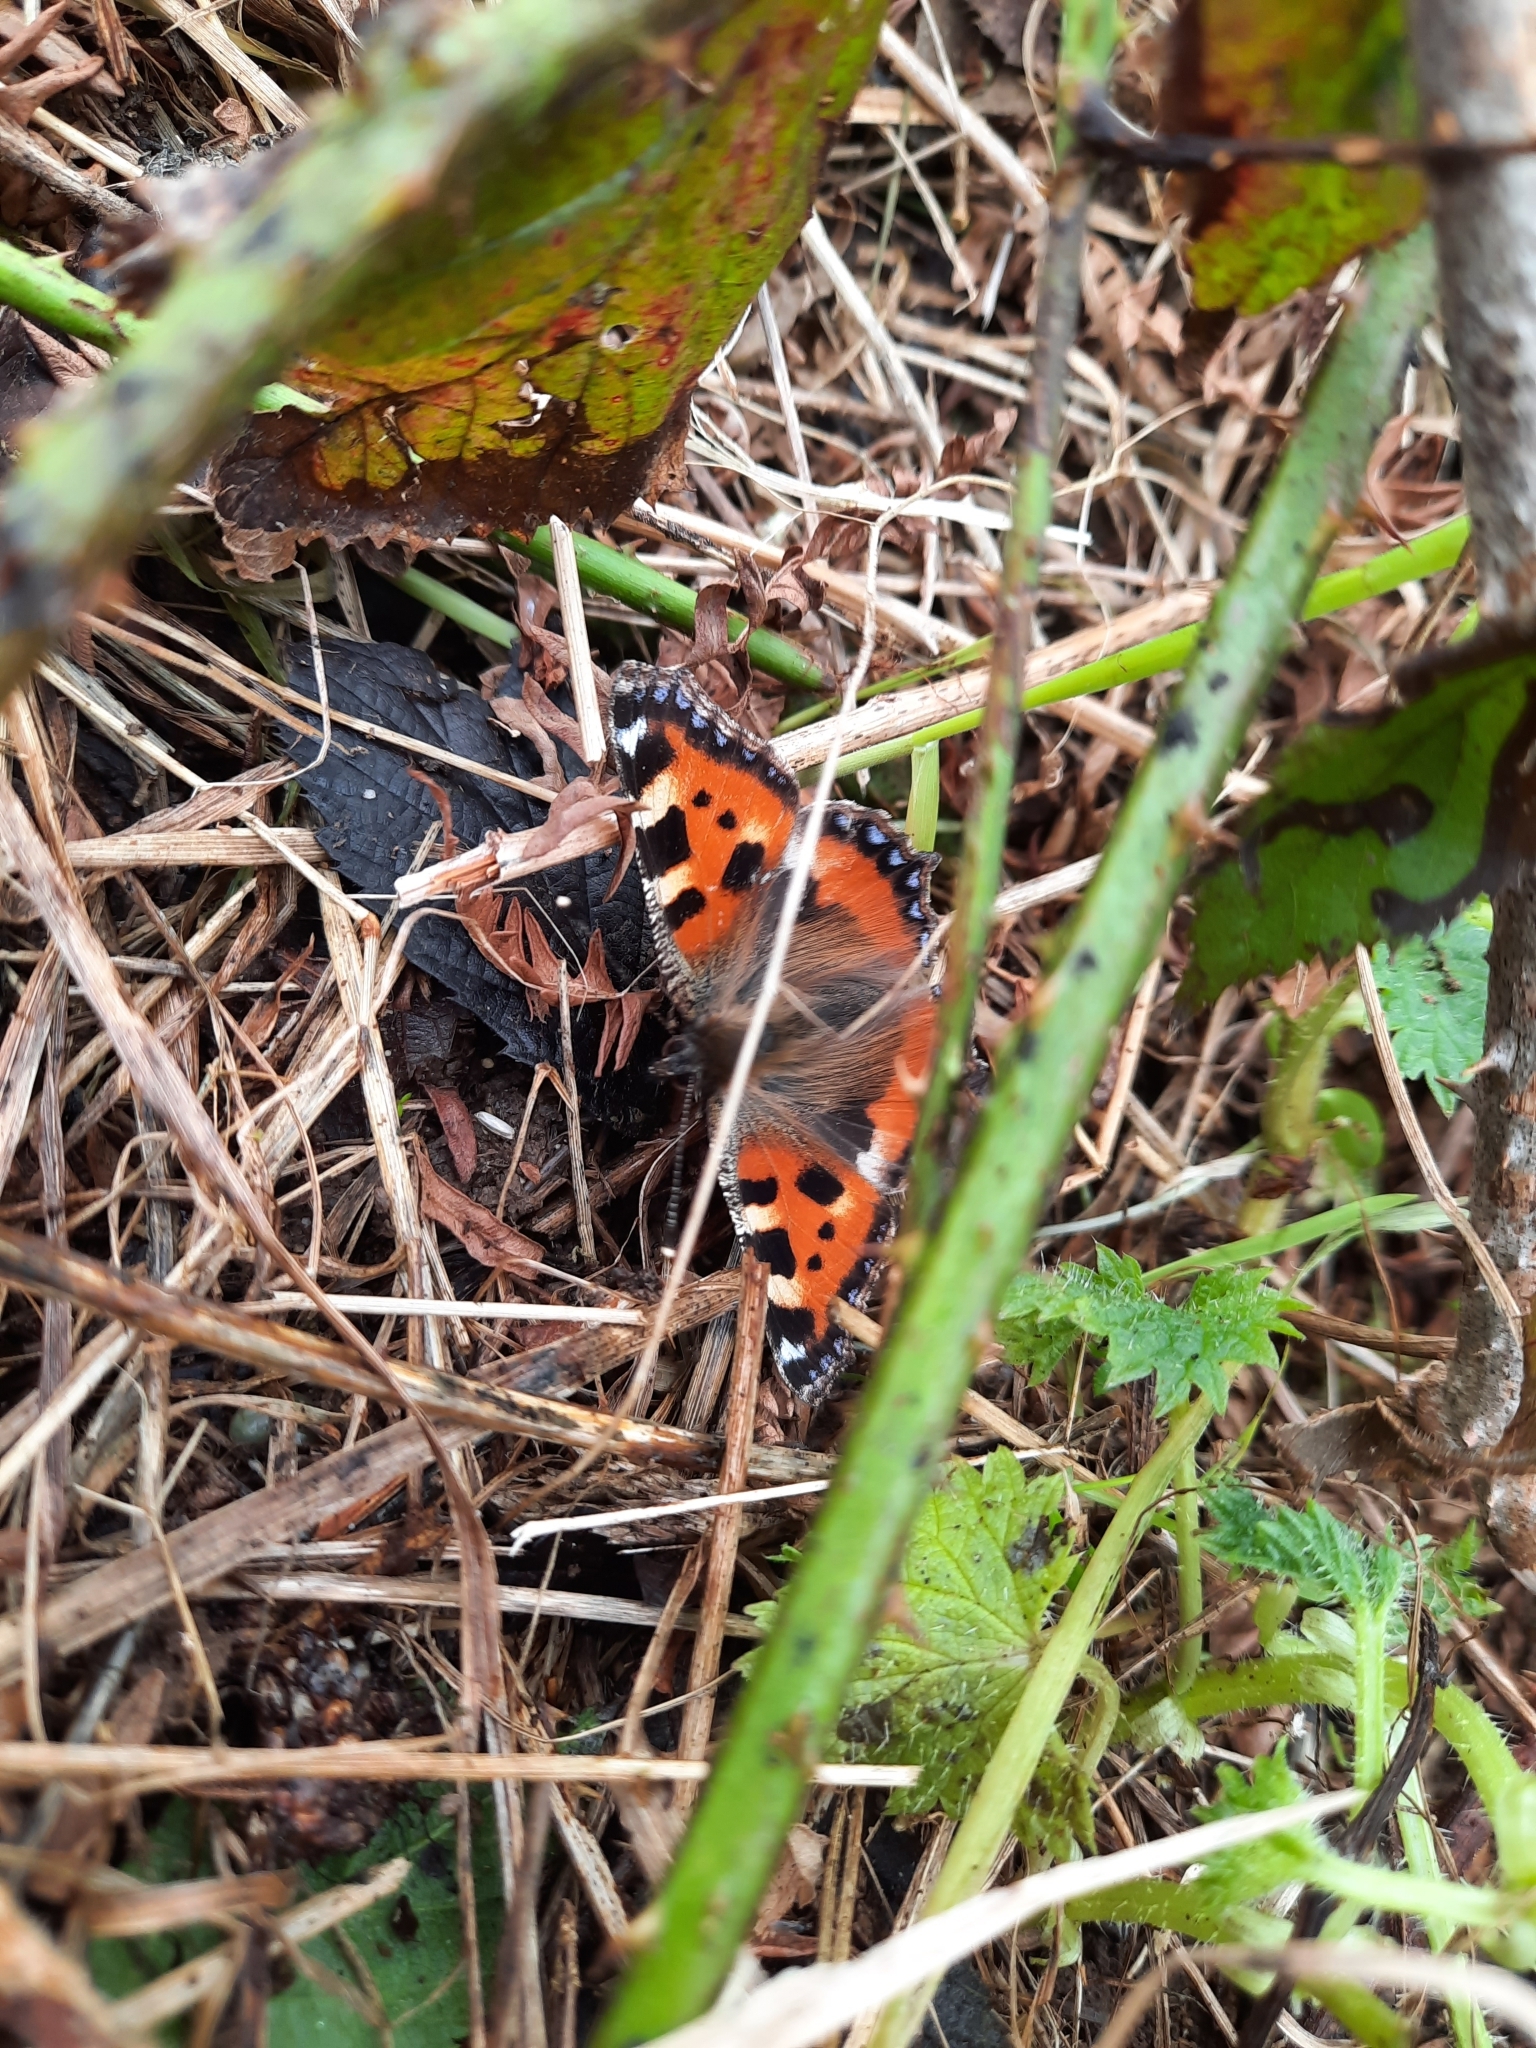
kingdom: Animalia
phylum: Arthropoda
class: Insecta
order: Lepidoptera
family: Nymphalidae
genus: Aglais
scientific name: Aglais urticae
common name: Small tortoiseshell
